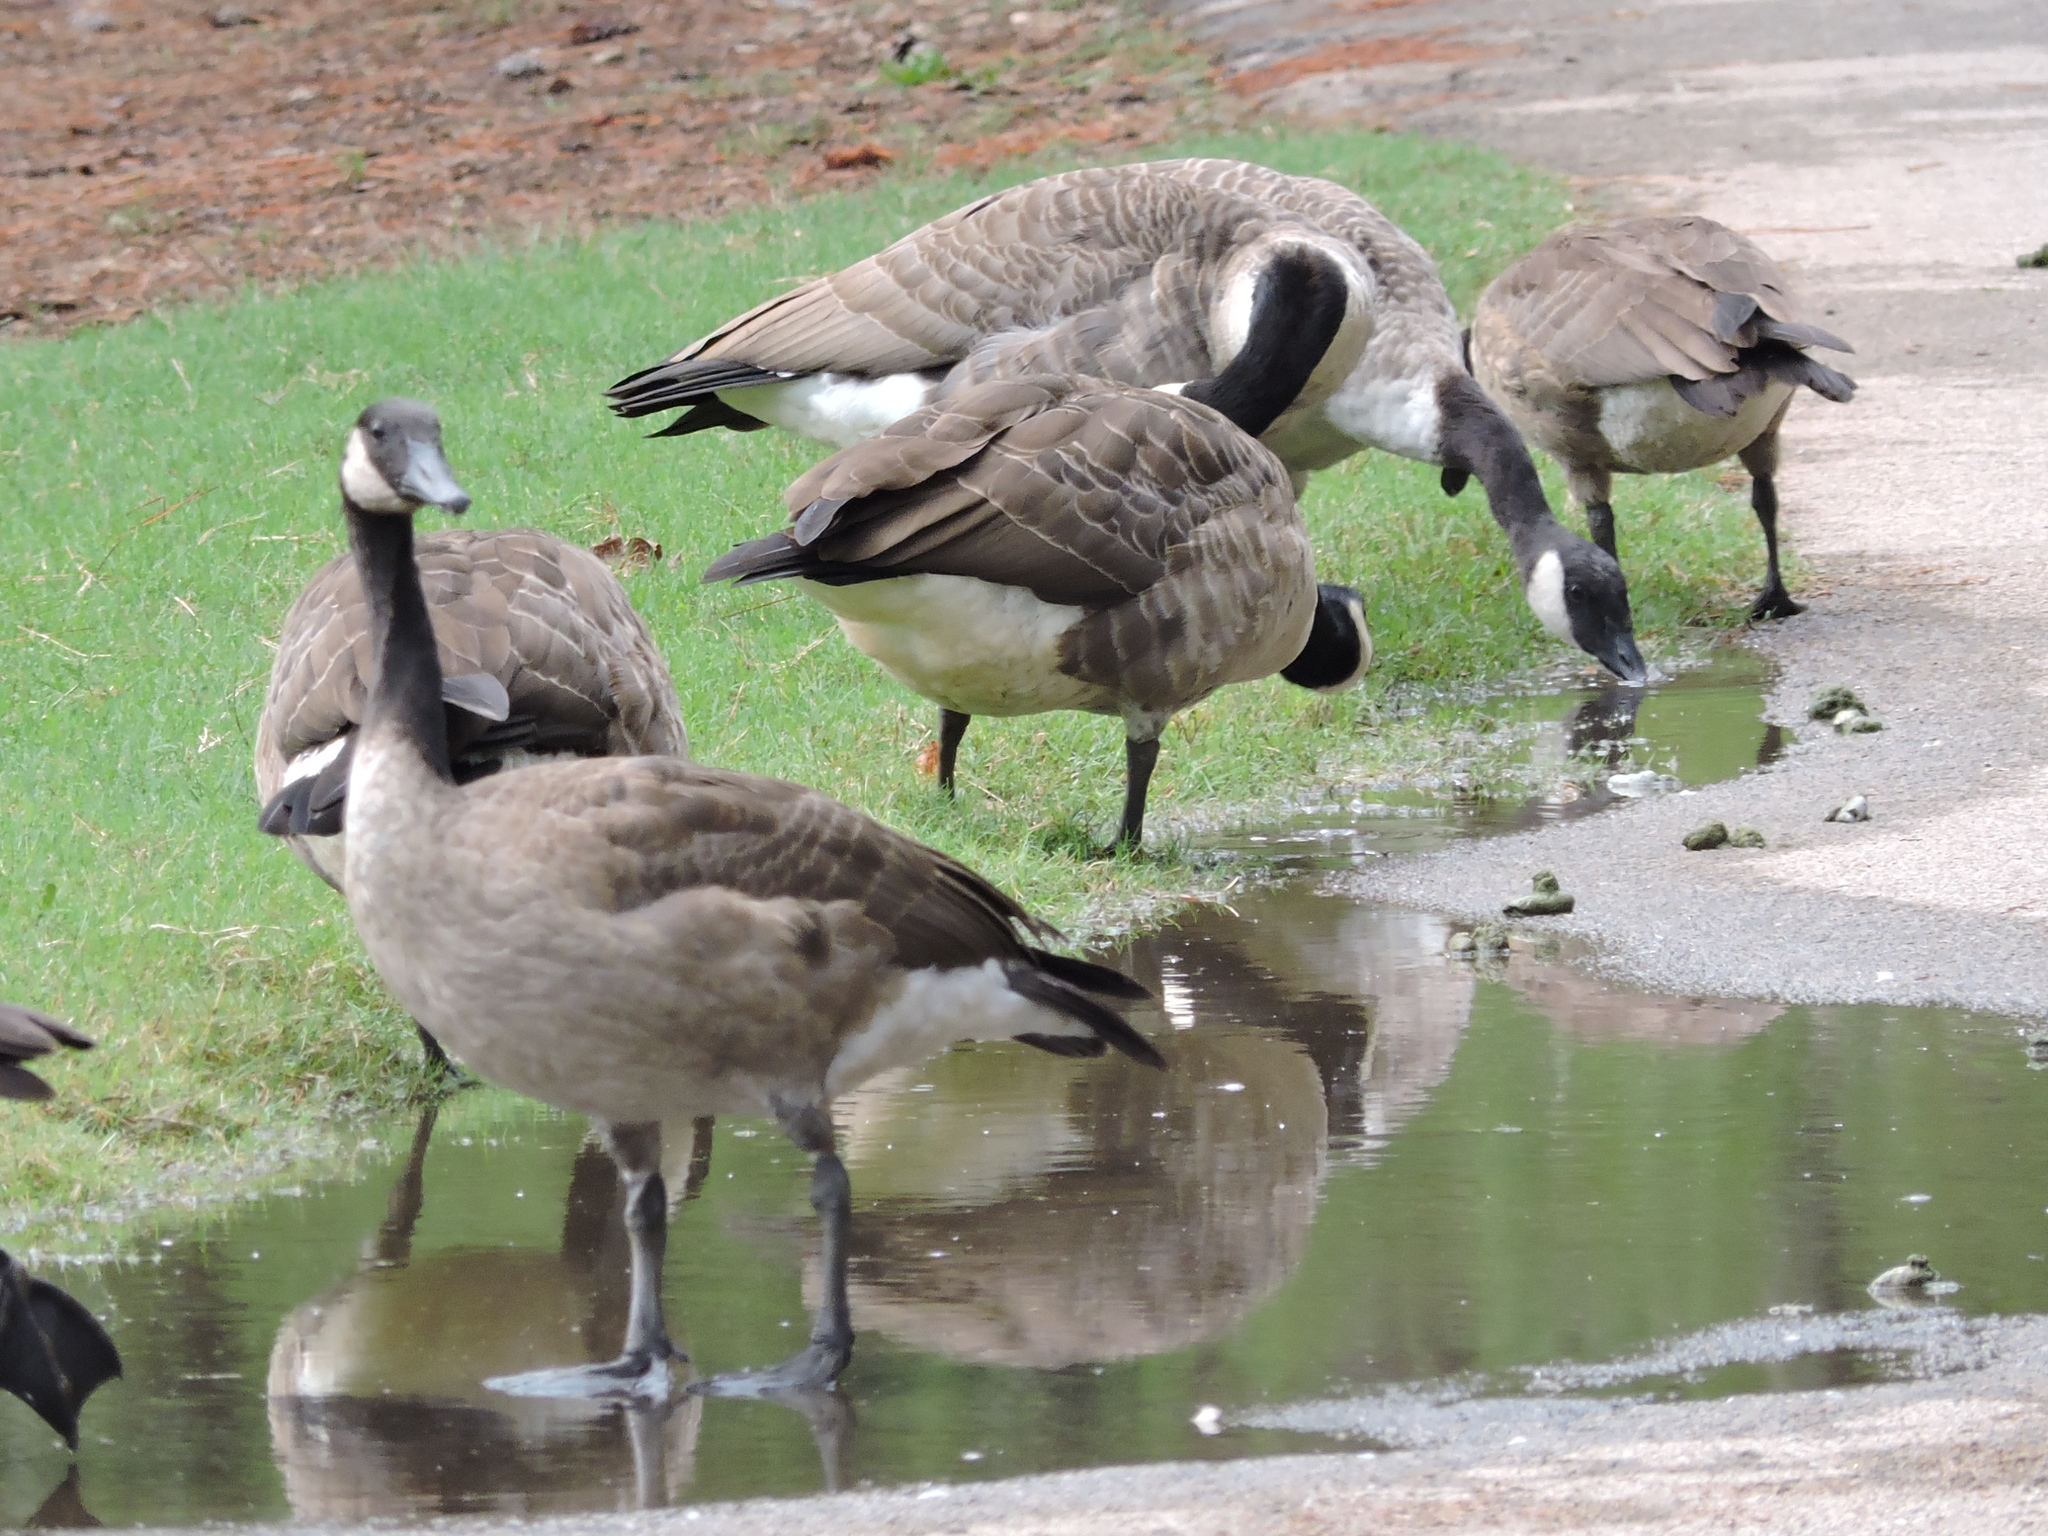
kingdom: Animalia
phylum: Chordata
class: Aves
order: Anseriformes
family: Anatidae
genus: Branta
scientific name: Branta canadensis
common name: Canada goose
